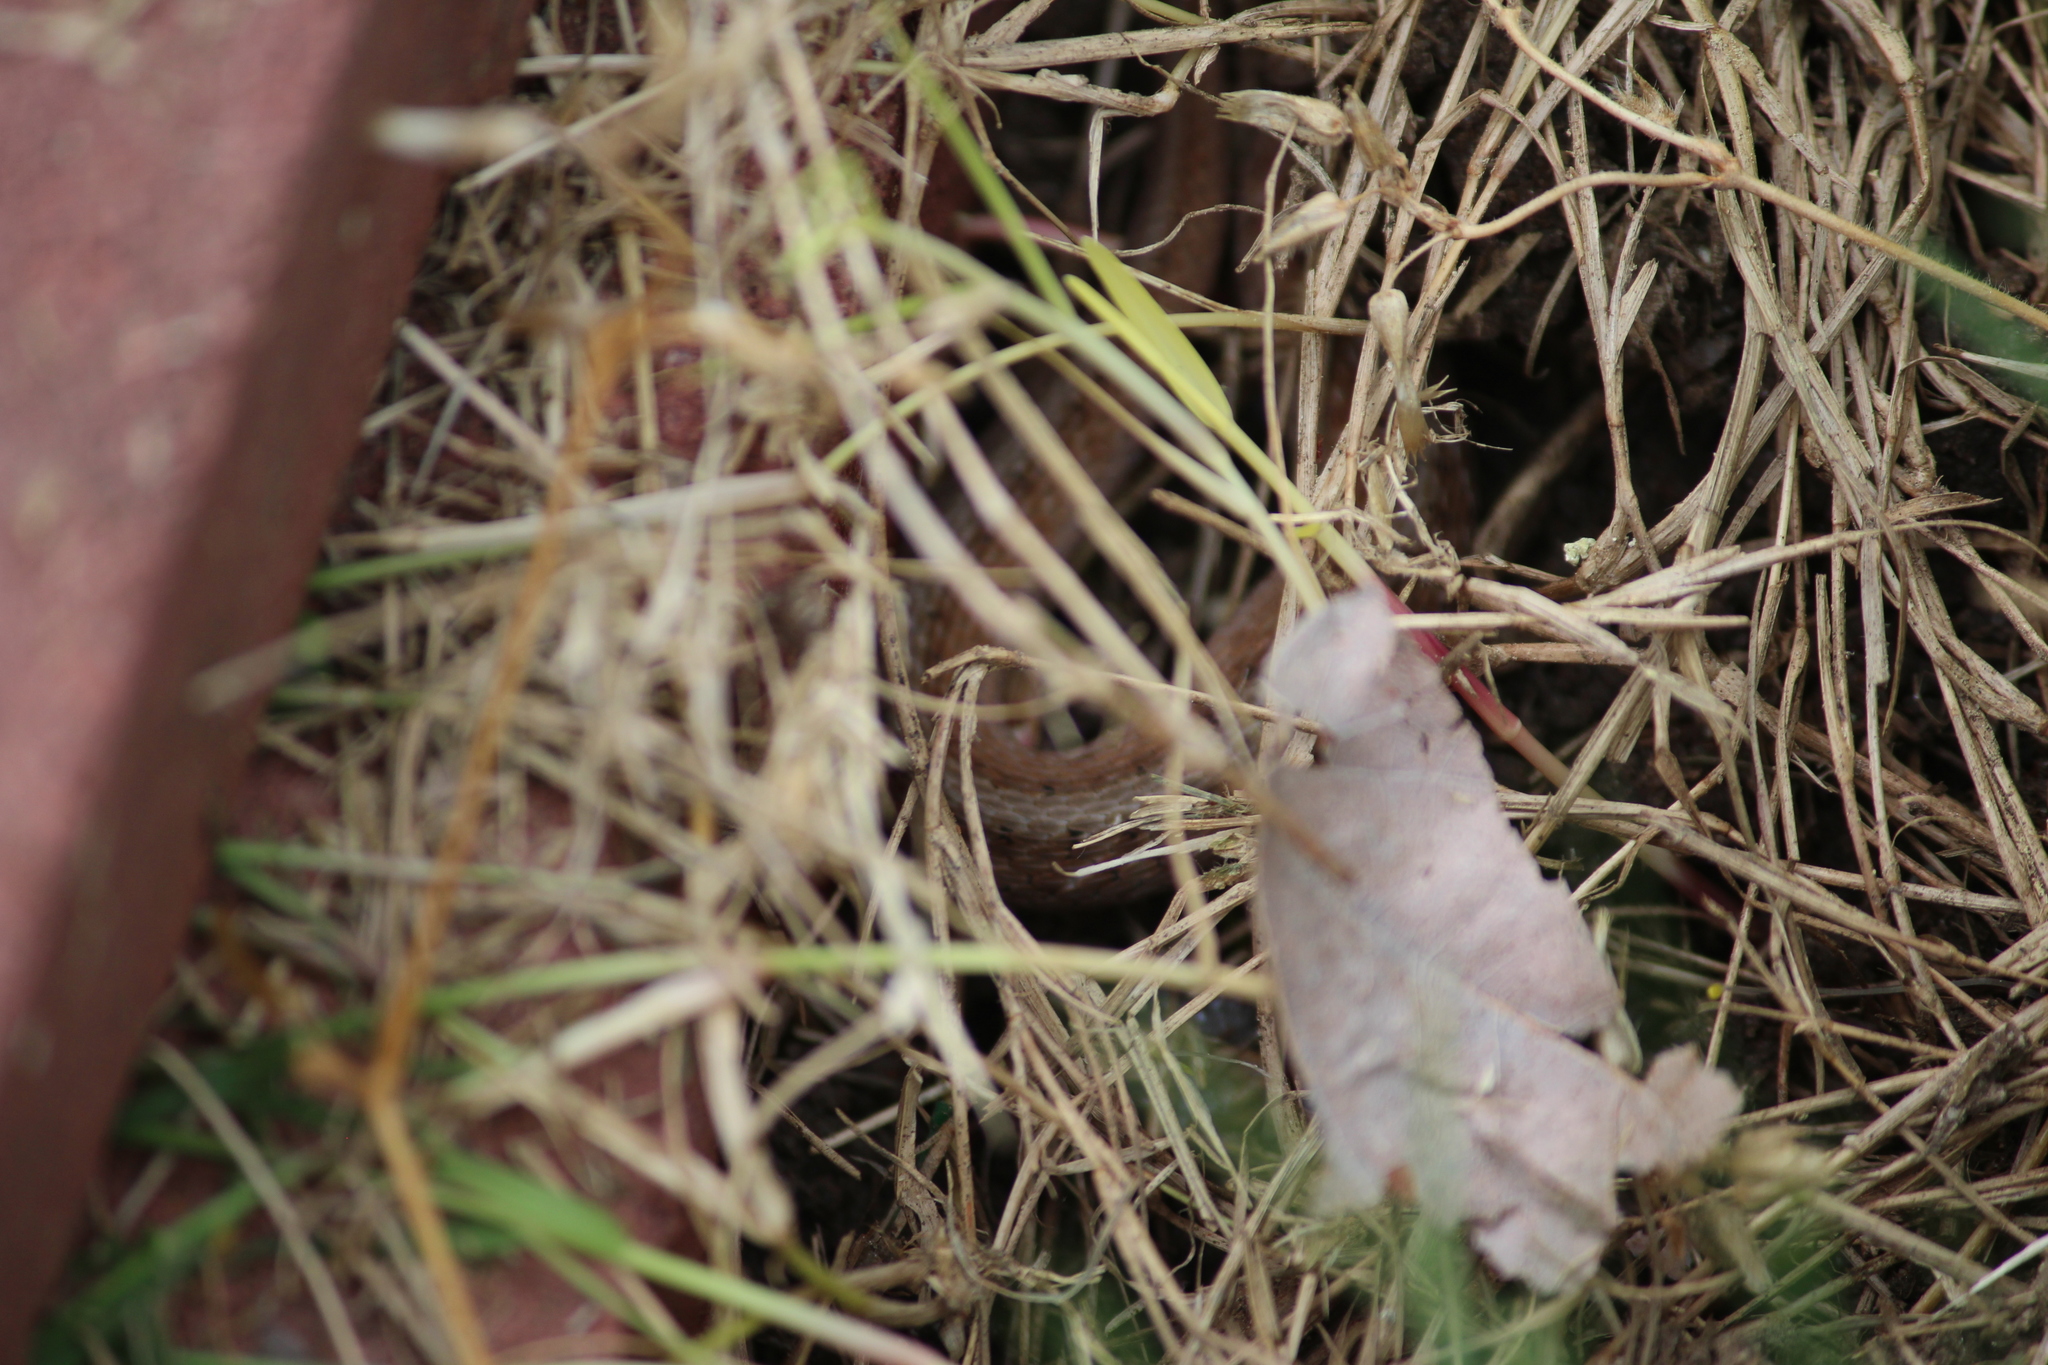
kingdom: Animalia
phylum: Chordata
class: Squamata
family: Colubridae
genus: Storeria
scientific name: Storeria dekayi
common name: (dekay’s) brown snake
